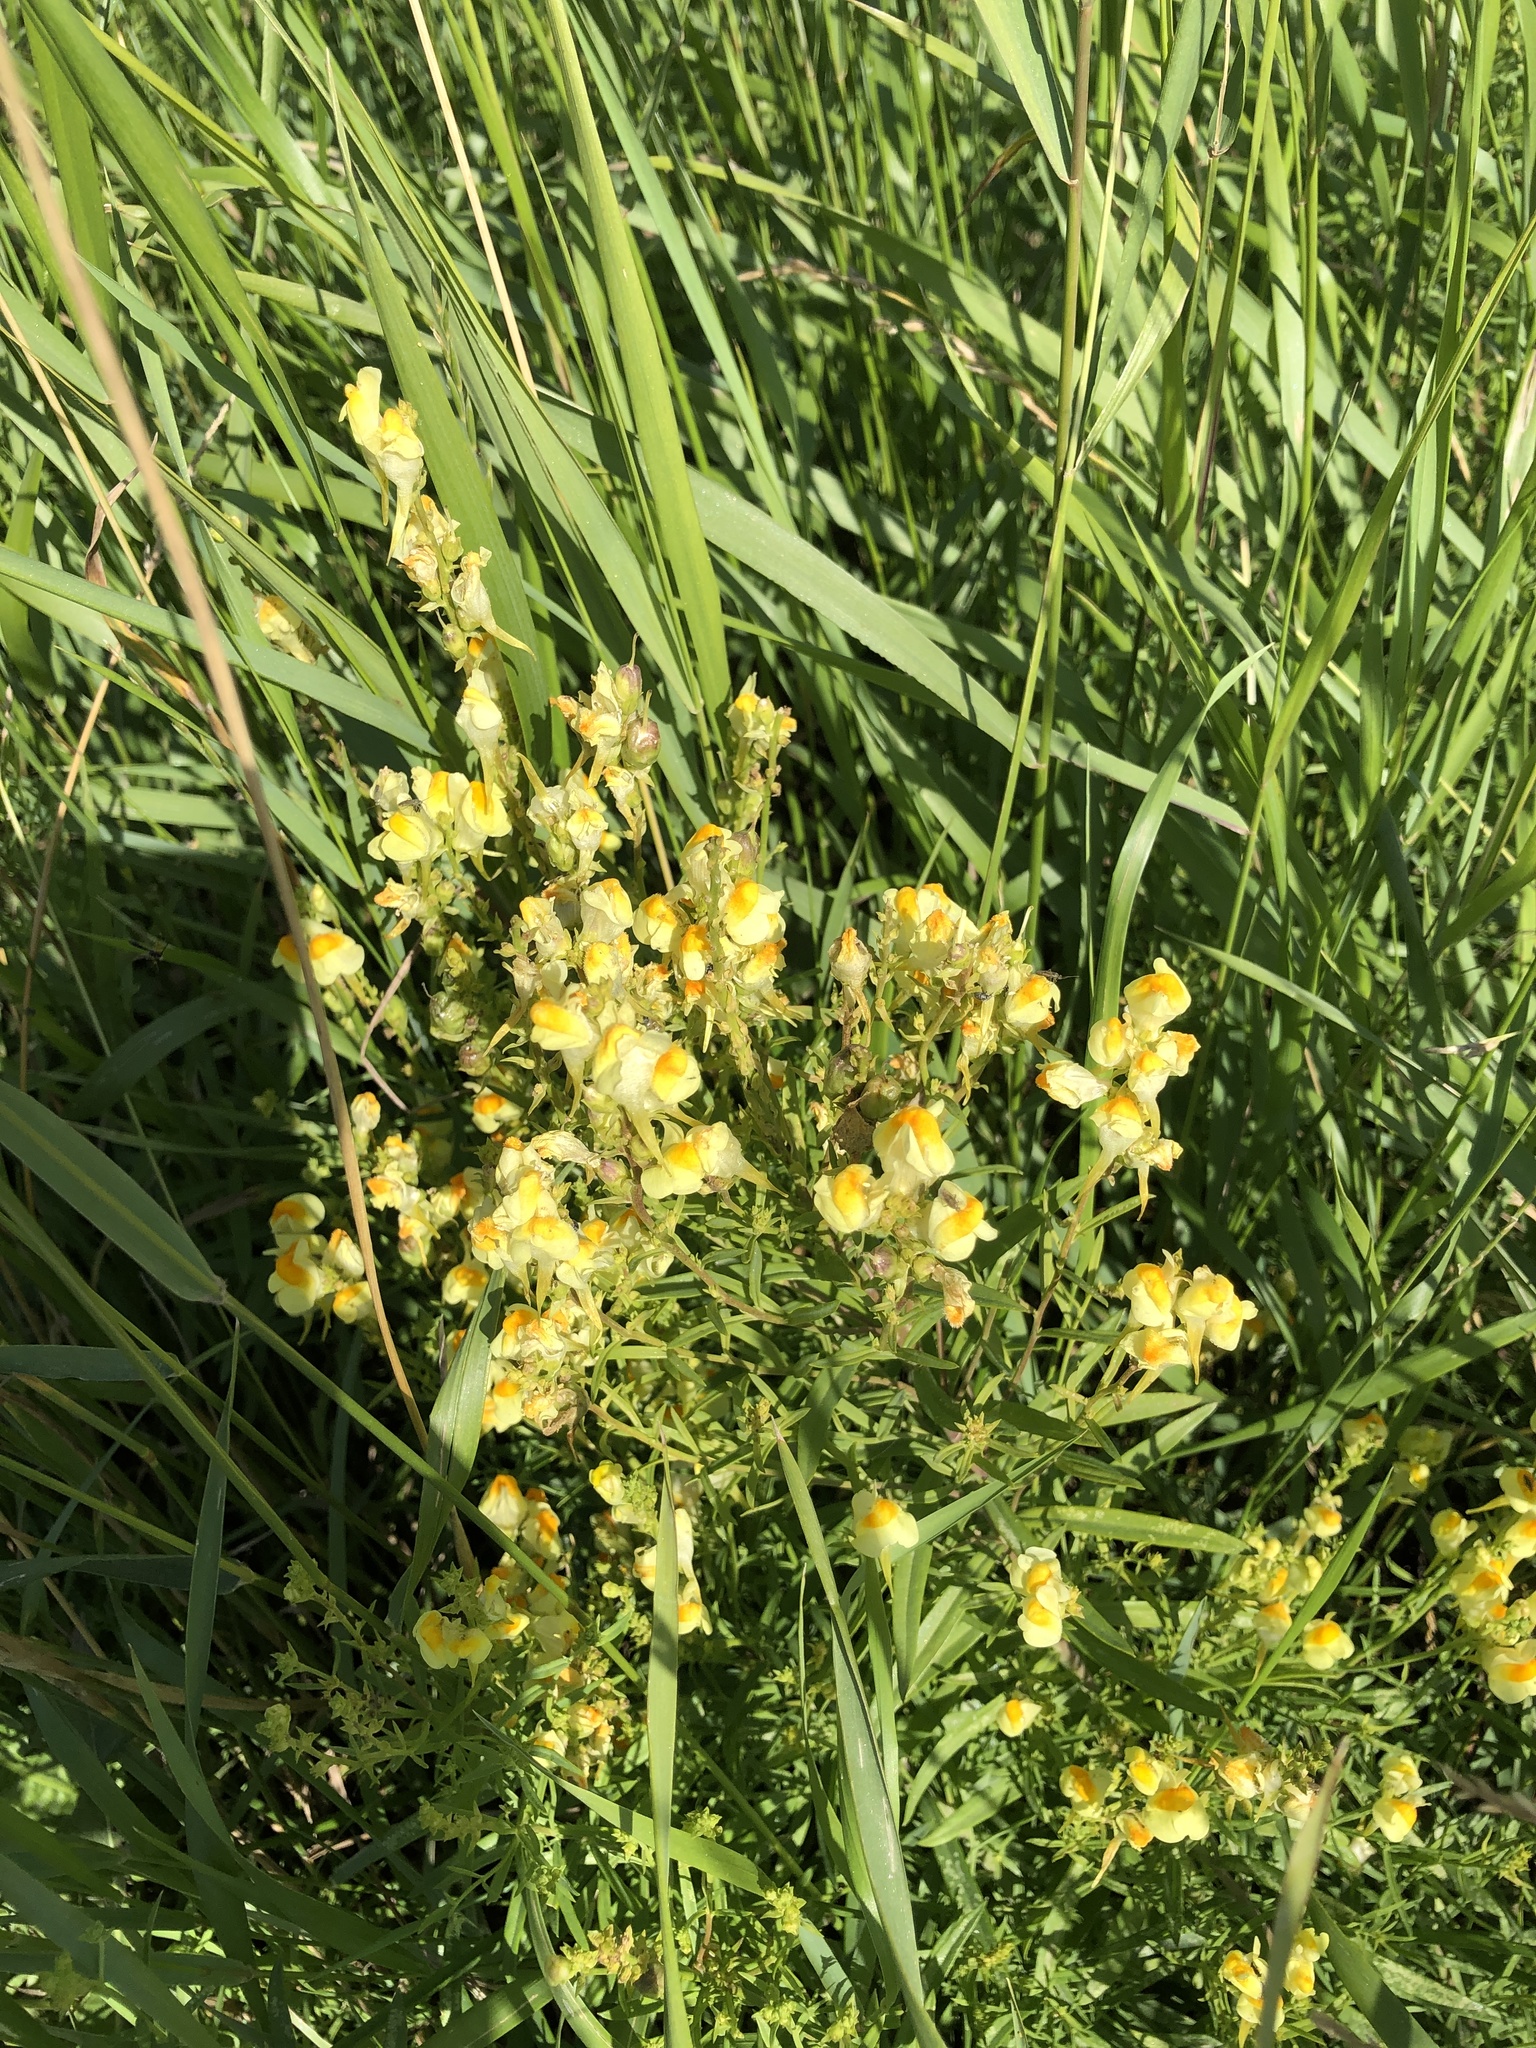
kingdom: Plantae
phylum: Tracheophyta
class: Magnoliopsida
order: Lamiales
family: Plantaginaceae
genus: Linaria
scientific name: Linaria vulgaris
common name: Butter and eggs
